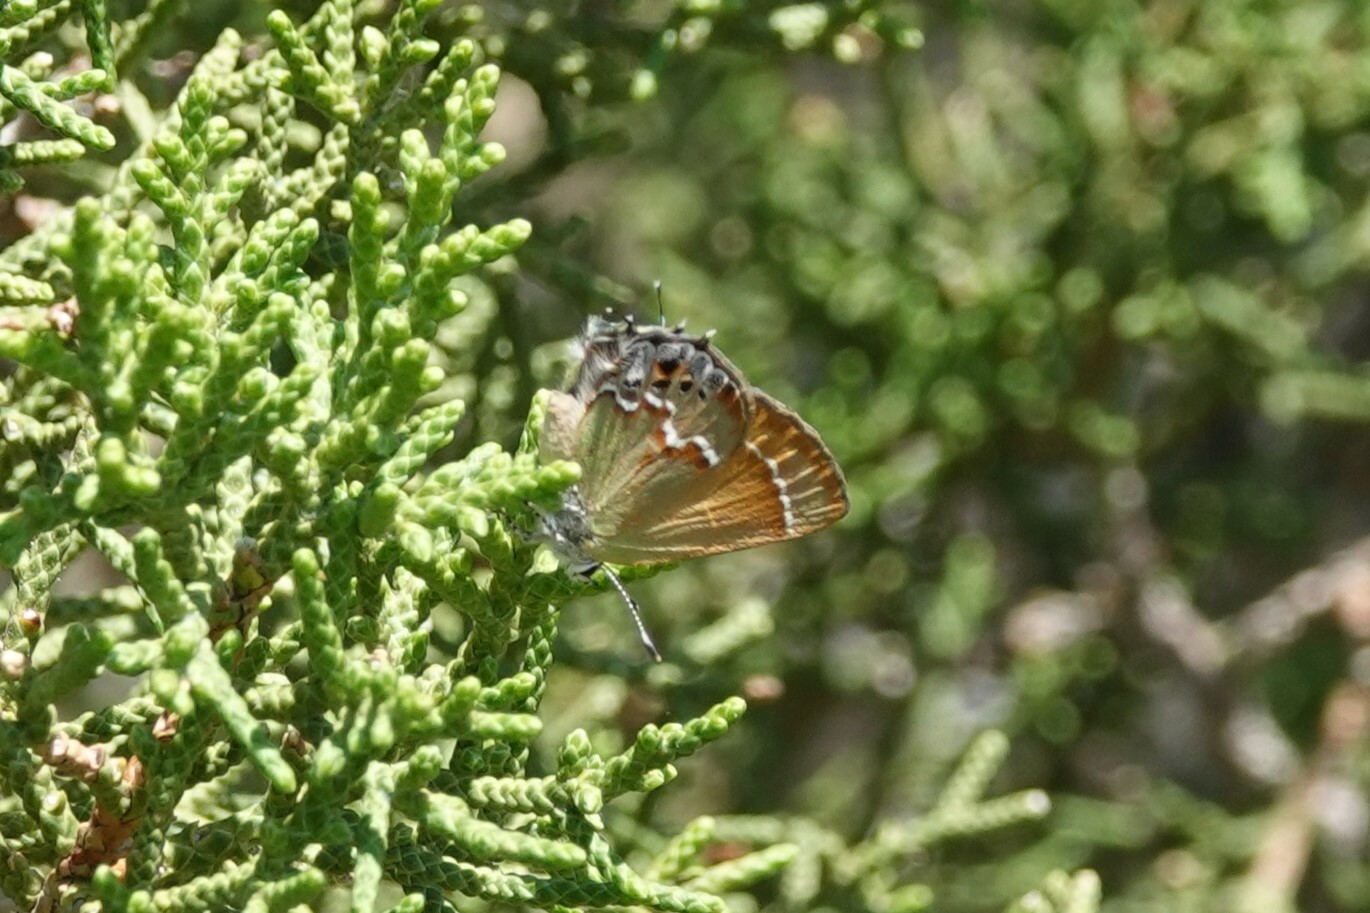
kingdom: Animalia
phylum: Arthropoda
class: Insecta
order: Lepidoptera
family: Lycaenidae
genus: Mitoura
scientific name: Mitoura gryneus
